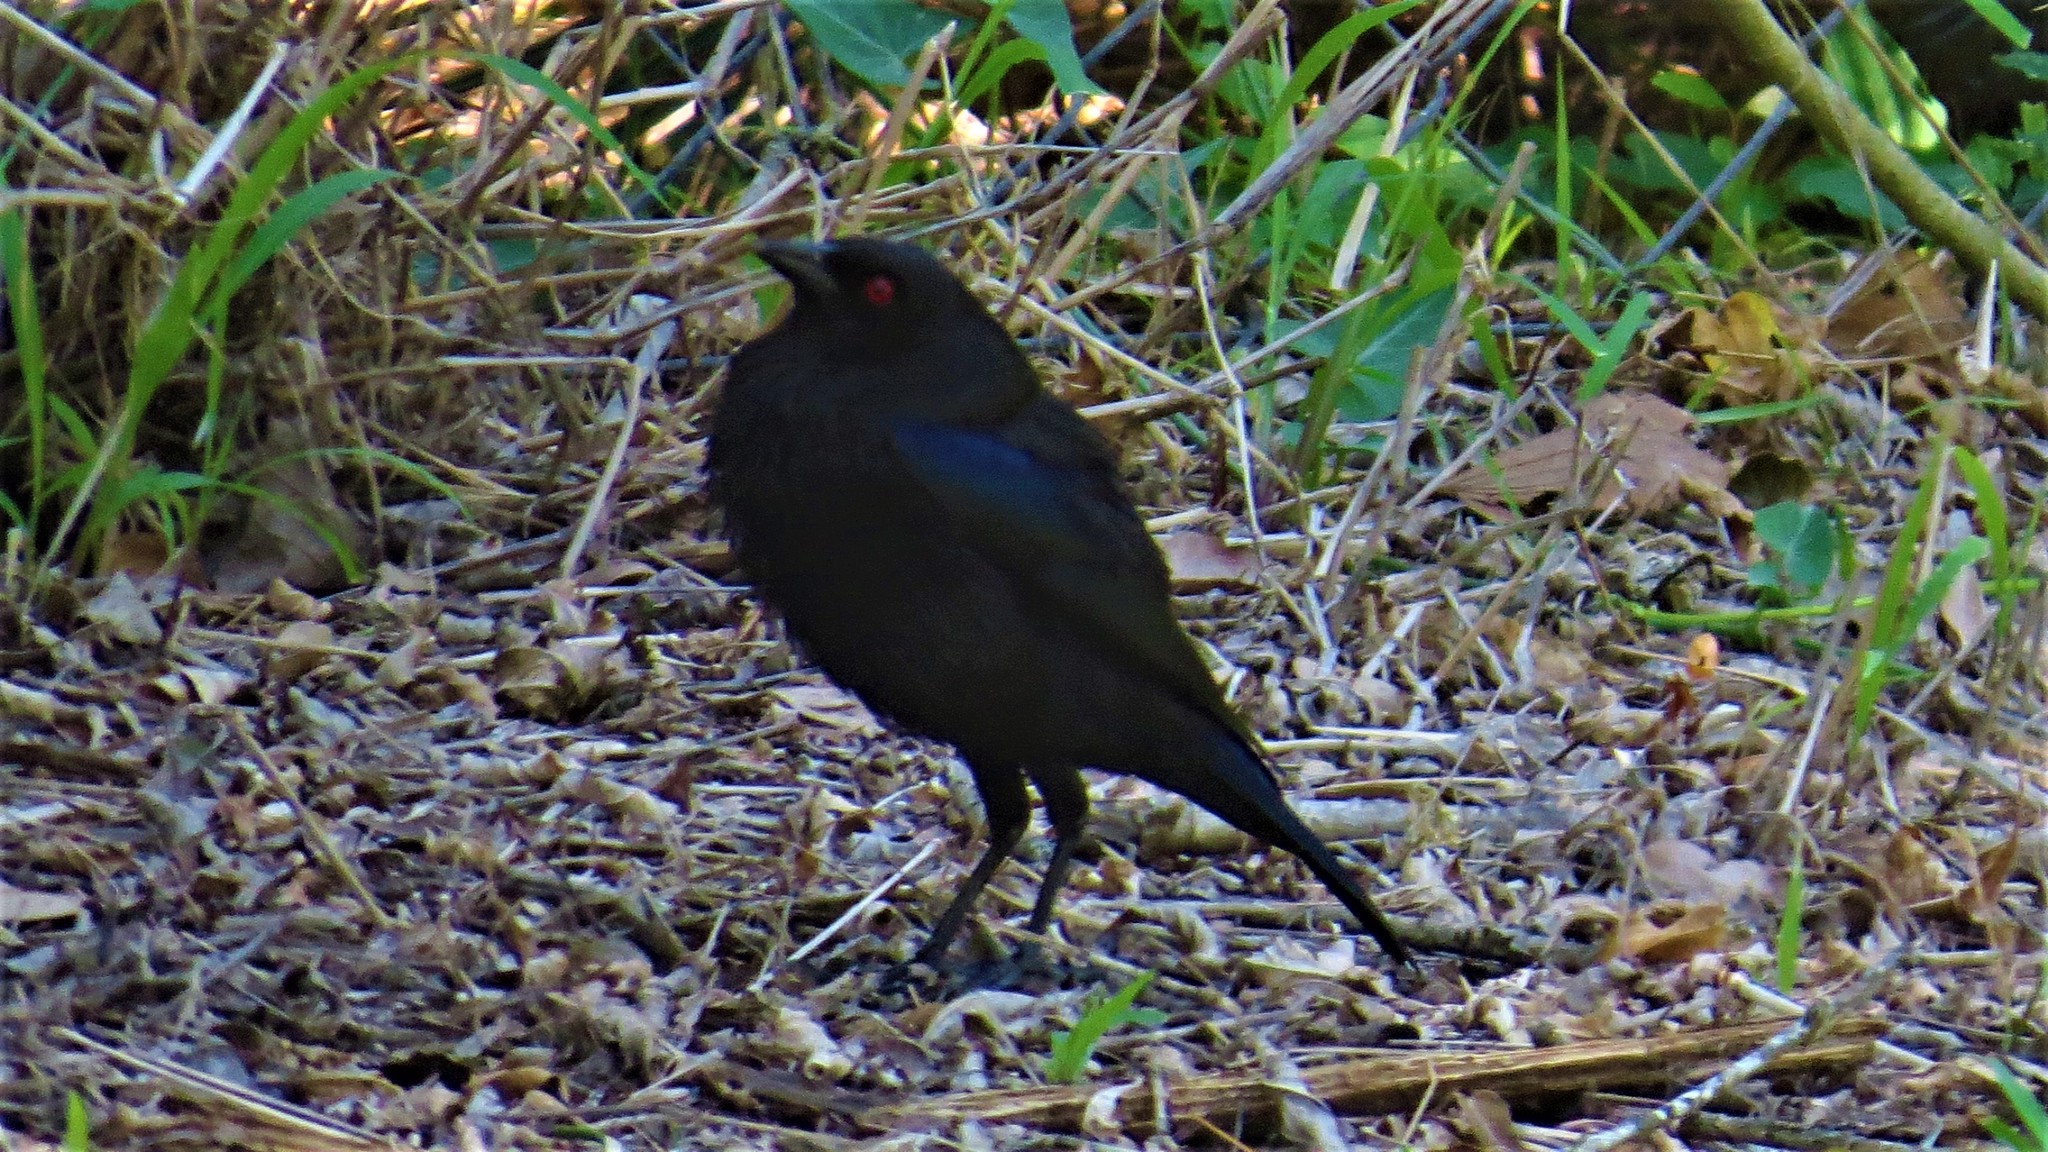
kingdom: Animalia
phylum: Chordata
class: Aves
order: Passeriformes
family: Icteridae
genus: Molothrus
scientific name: Molothrus aeneus
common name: Bronzed cowbird
